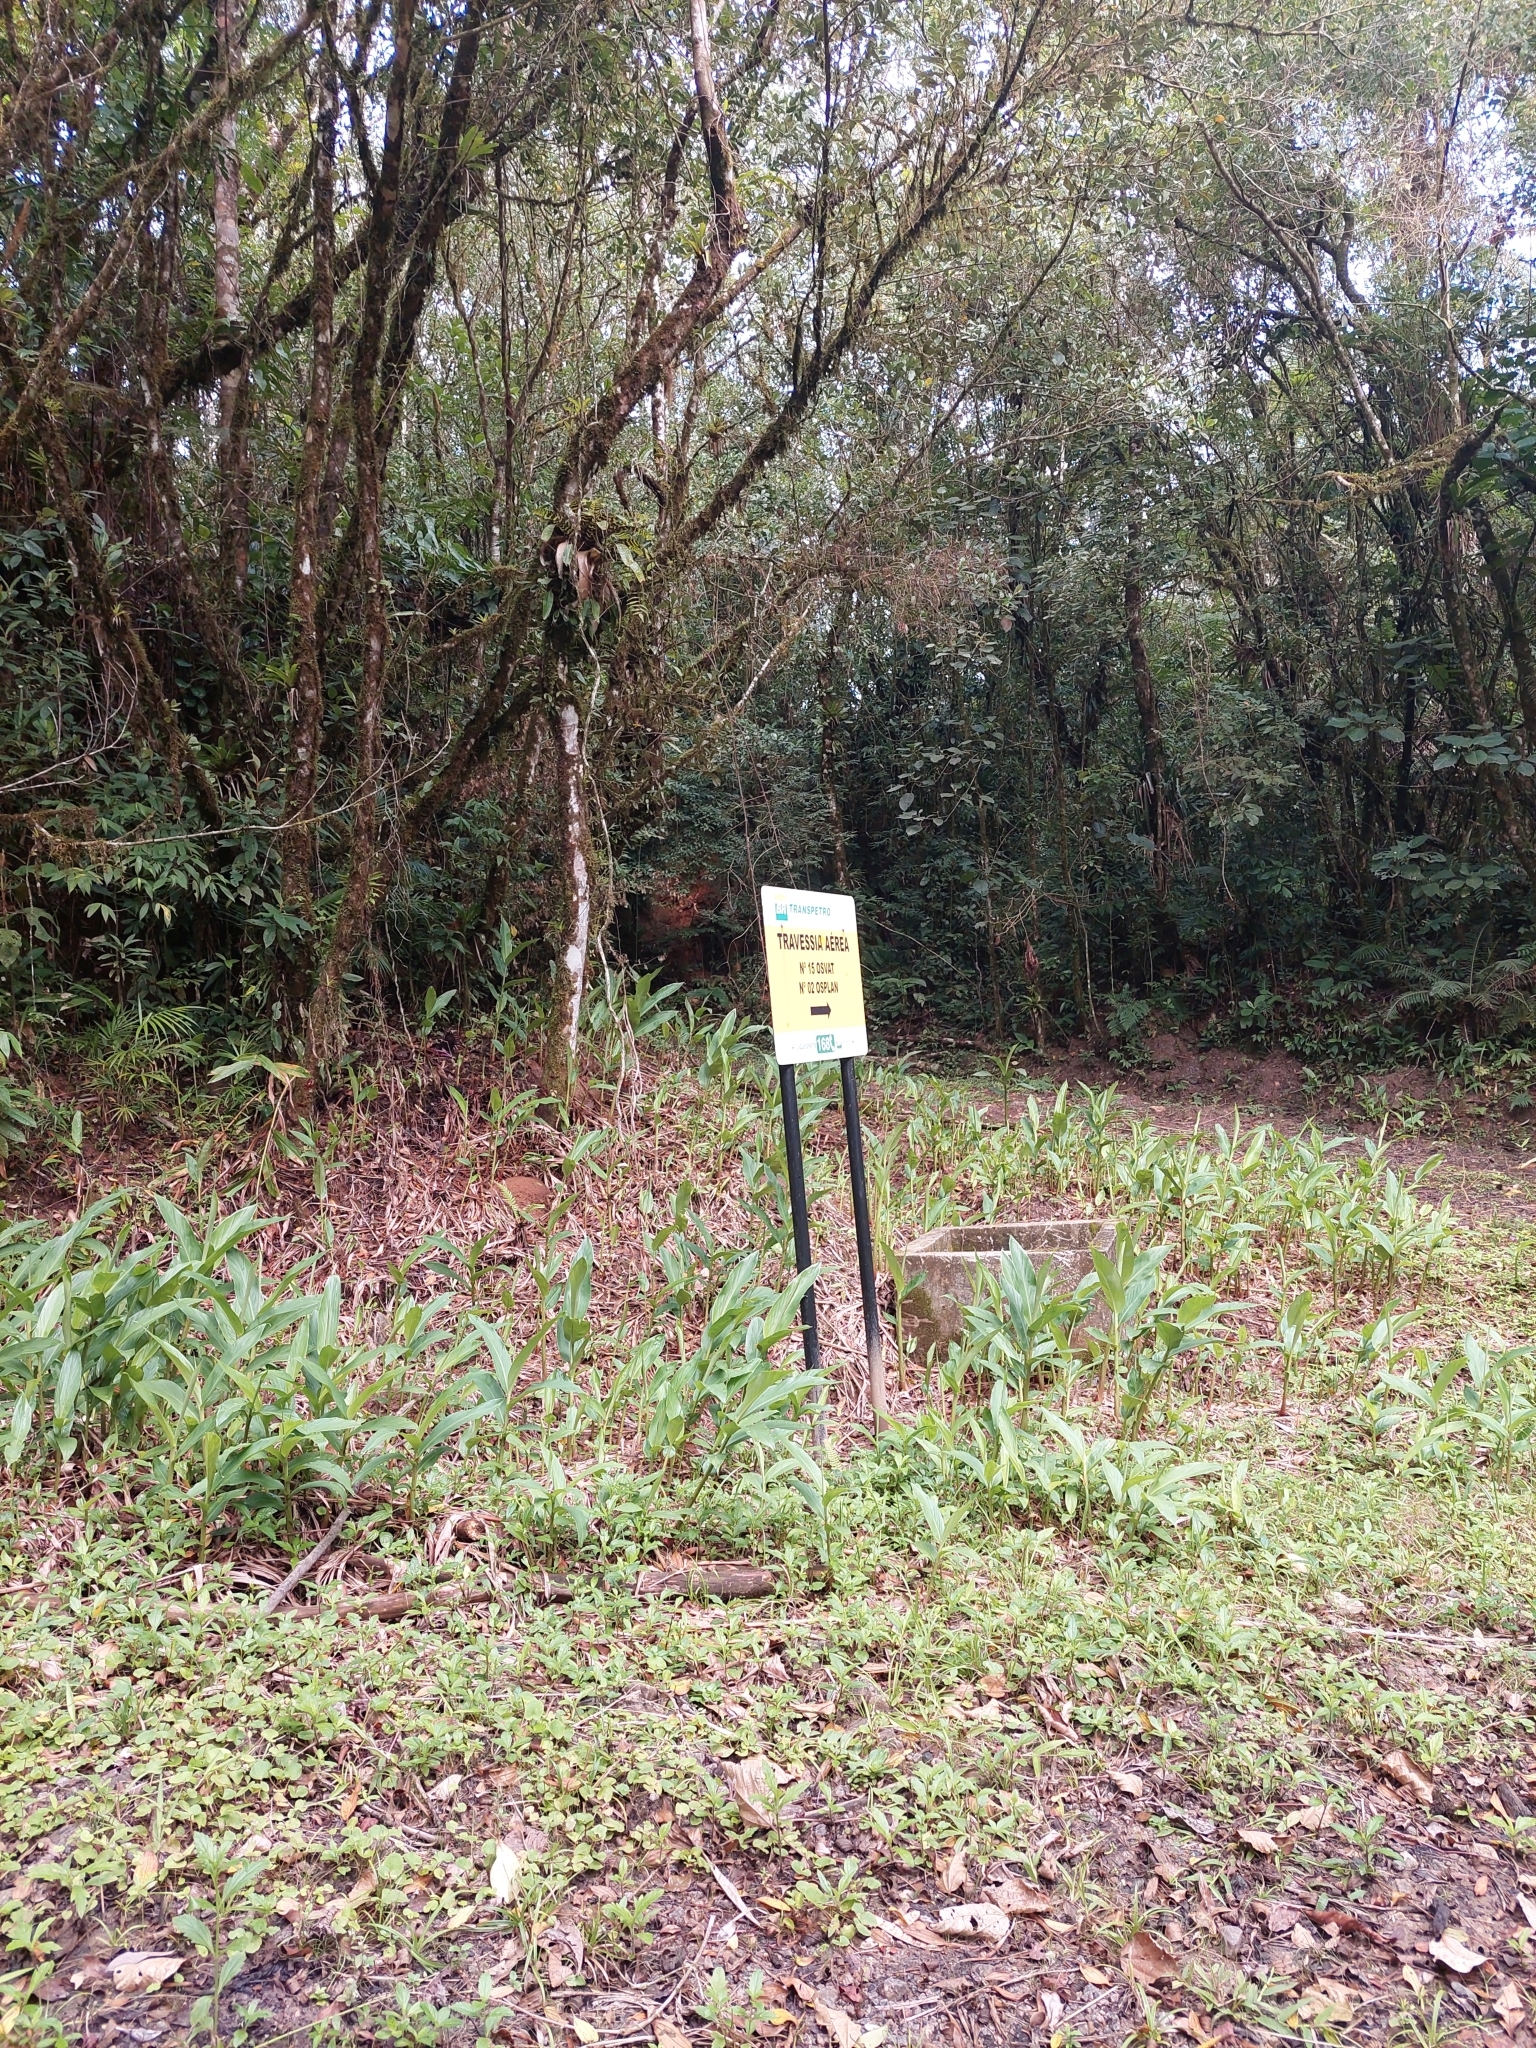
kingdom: Plantae
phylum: Tracheophyta
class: Liliopsida
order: Zingiberales
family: Zingiberaceae
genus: Hedychium
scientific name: Hedychium coronarium
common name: White garland-lily
